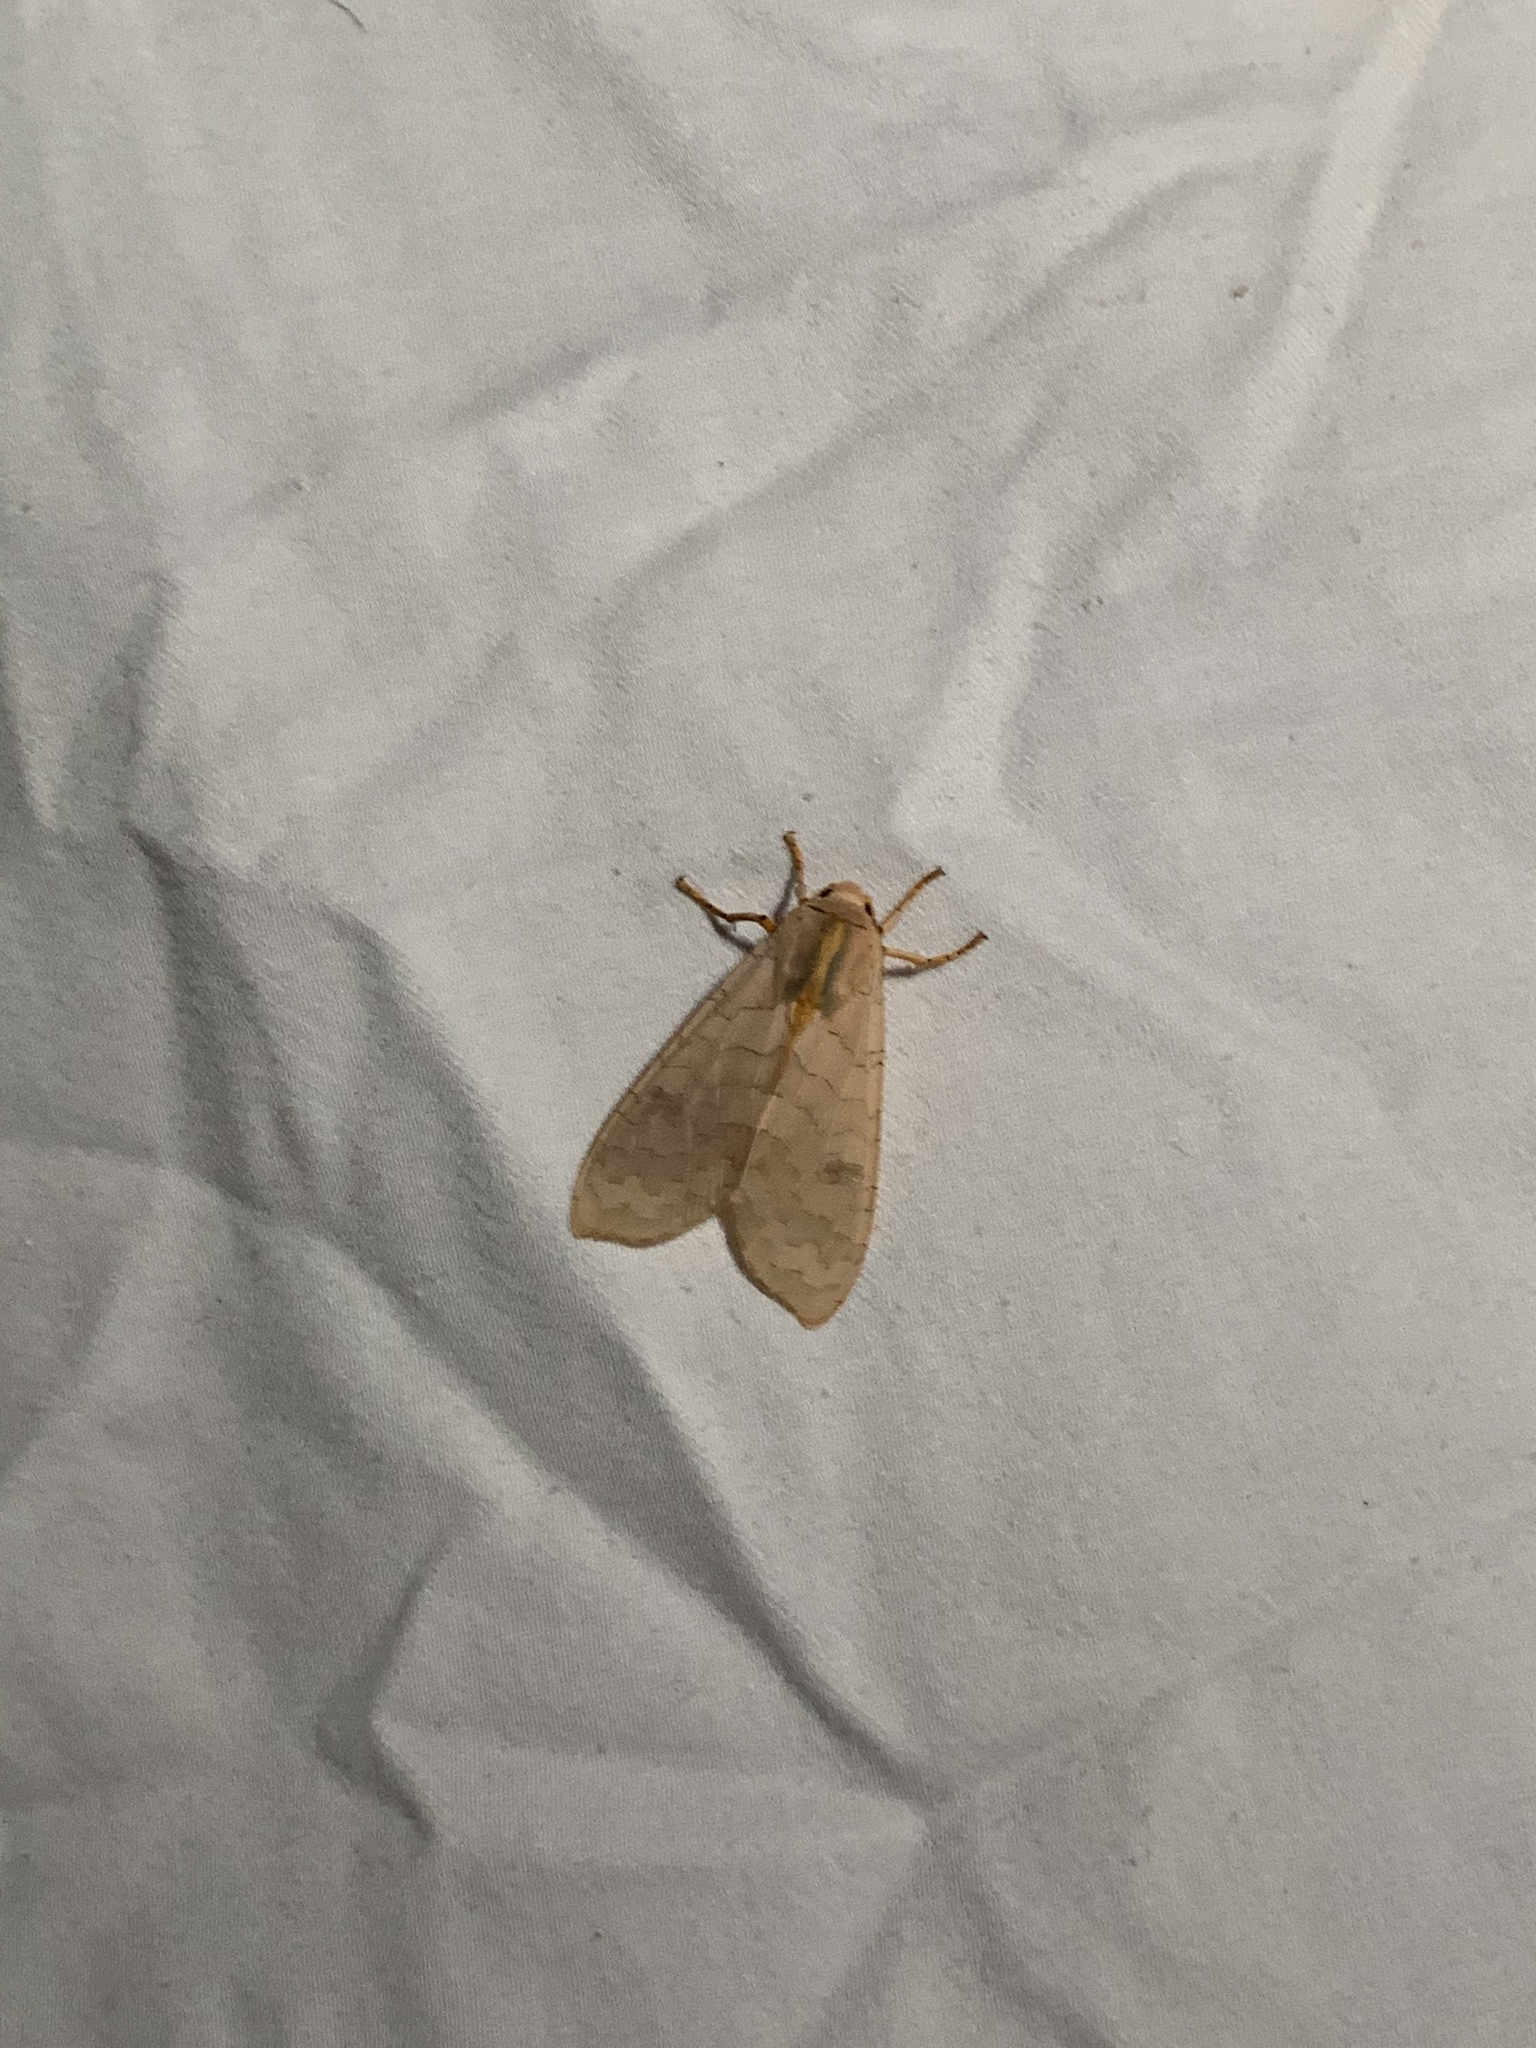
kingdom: Animalia
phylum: Arthropoda
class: Insecta
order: Lepidoptera
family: Erebidae
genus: Halysidota
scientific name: Halysidota
